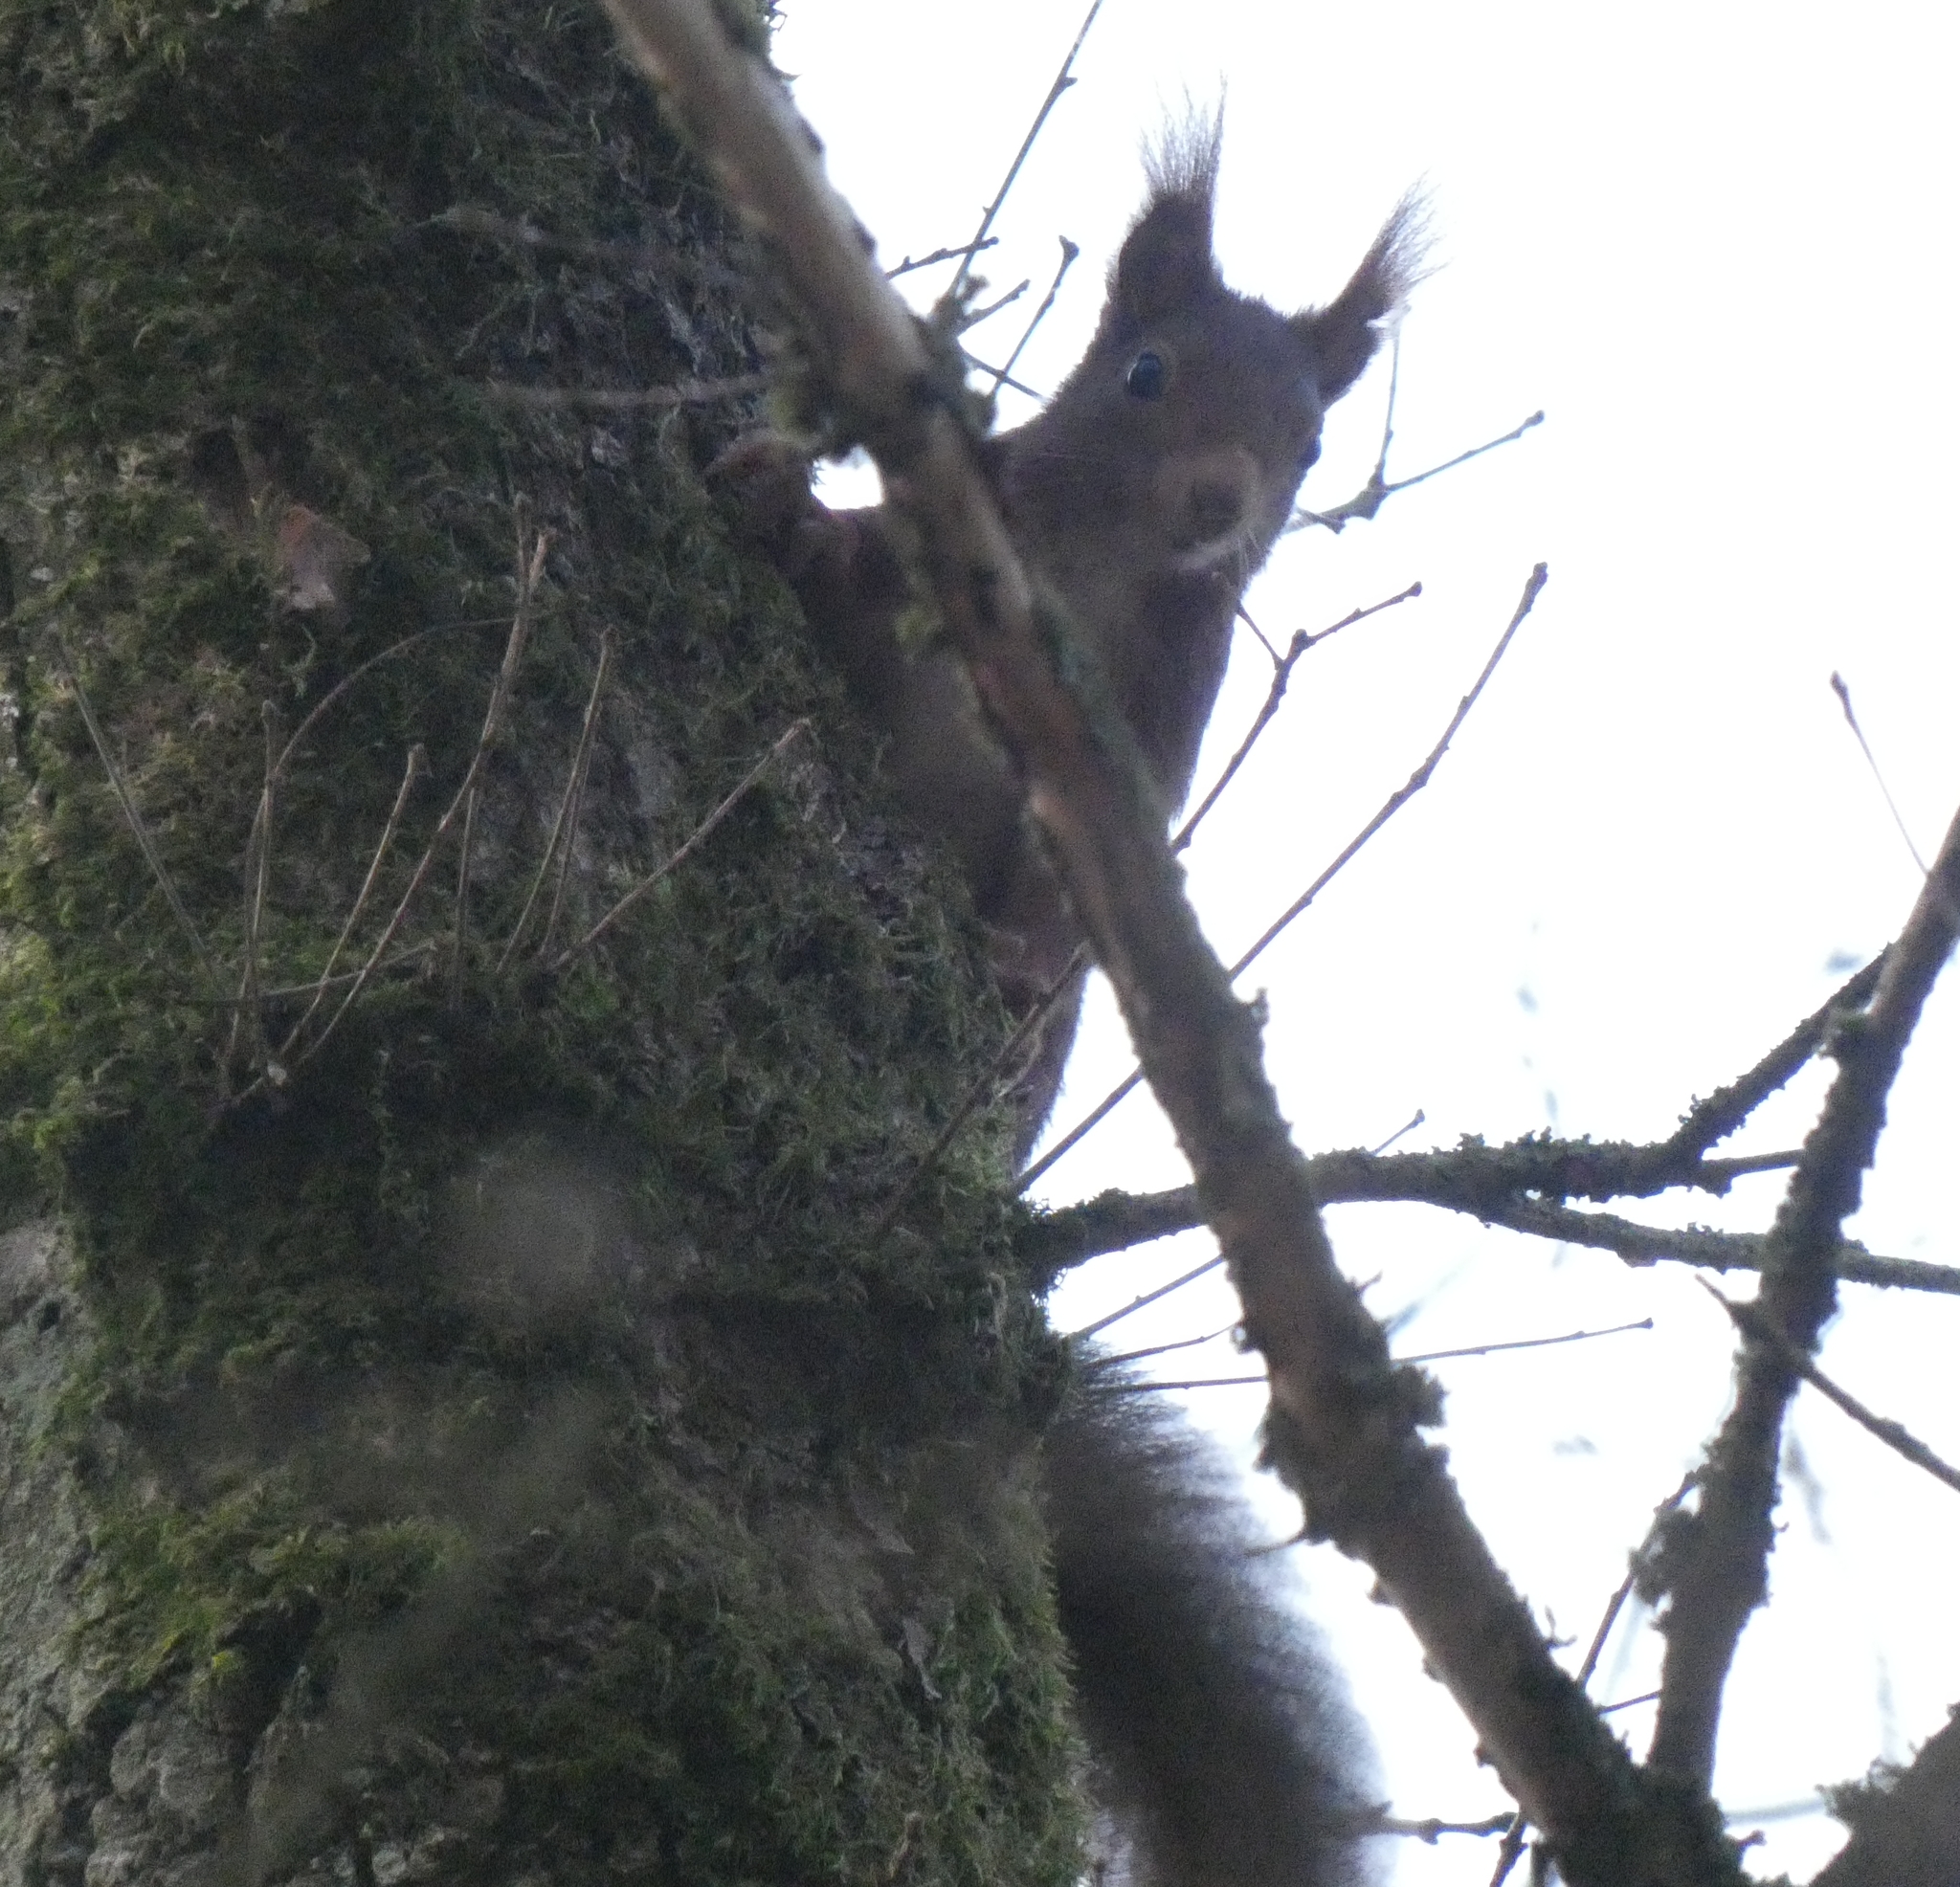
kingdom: Animalia
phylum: Chordata
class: Mammalia
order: Rodentia
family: Sciuridae
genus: Sciurus
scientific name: Sciurus vulgaris
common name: Eurasian red squirrel
